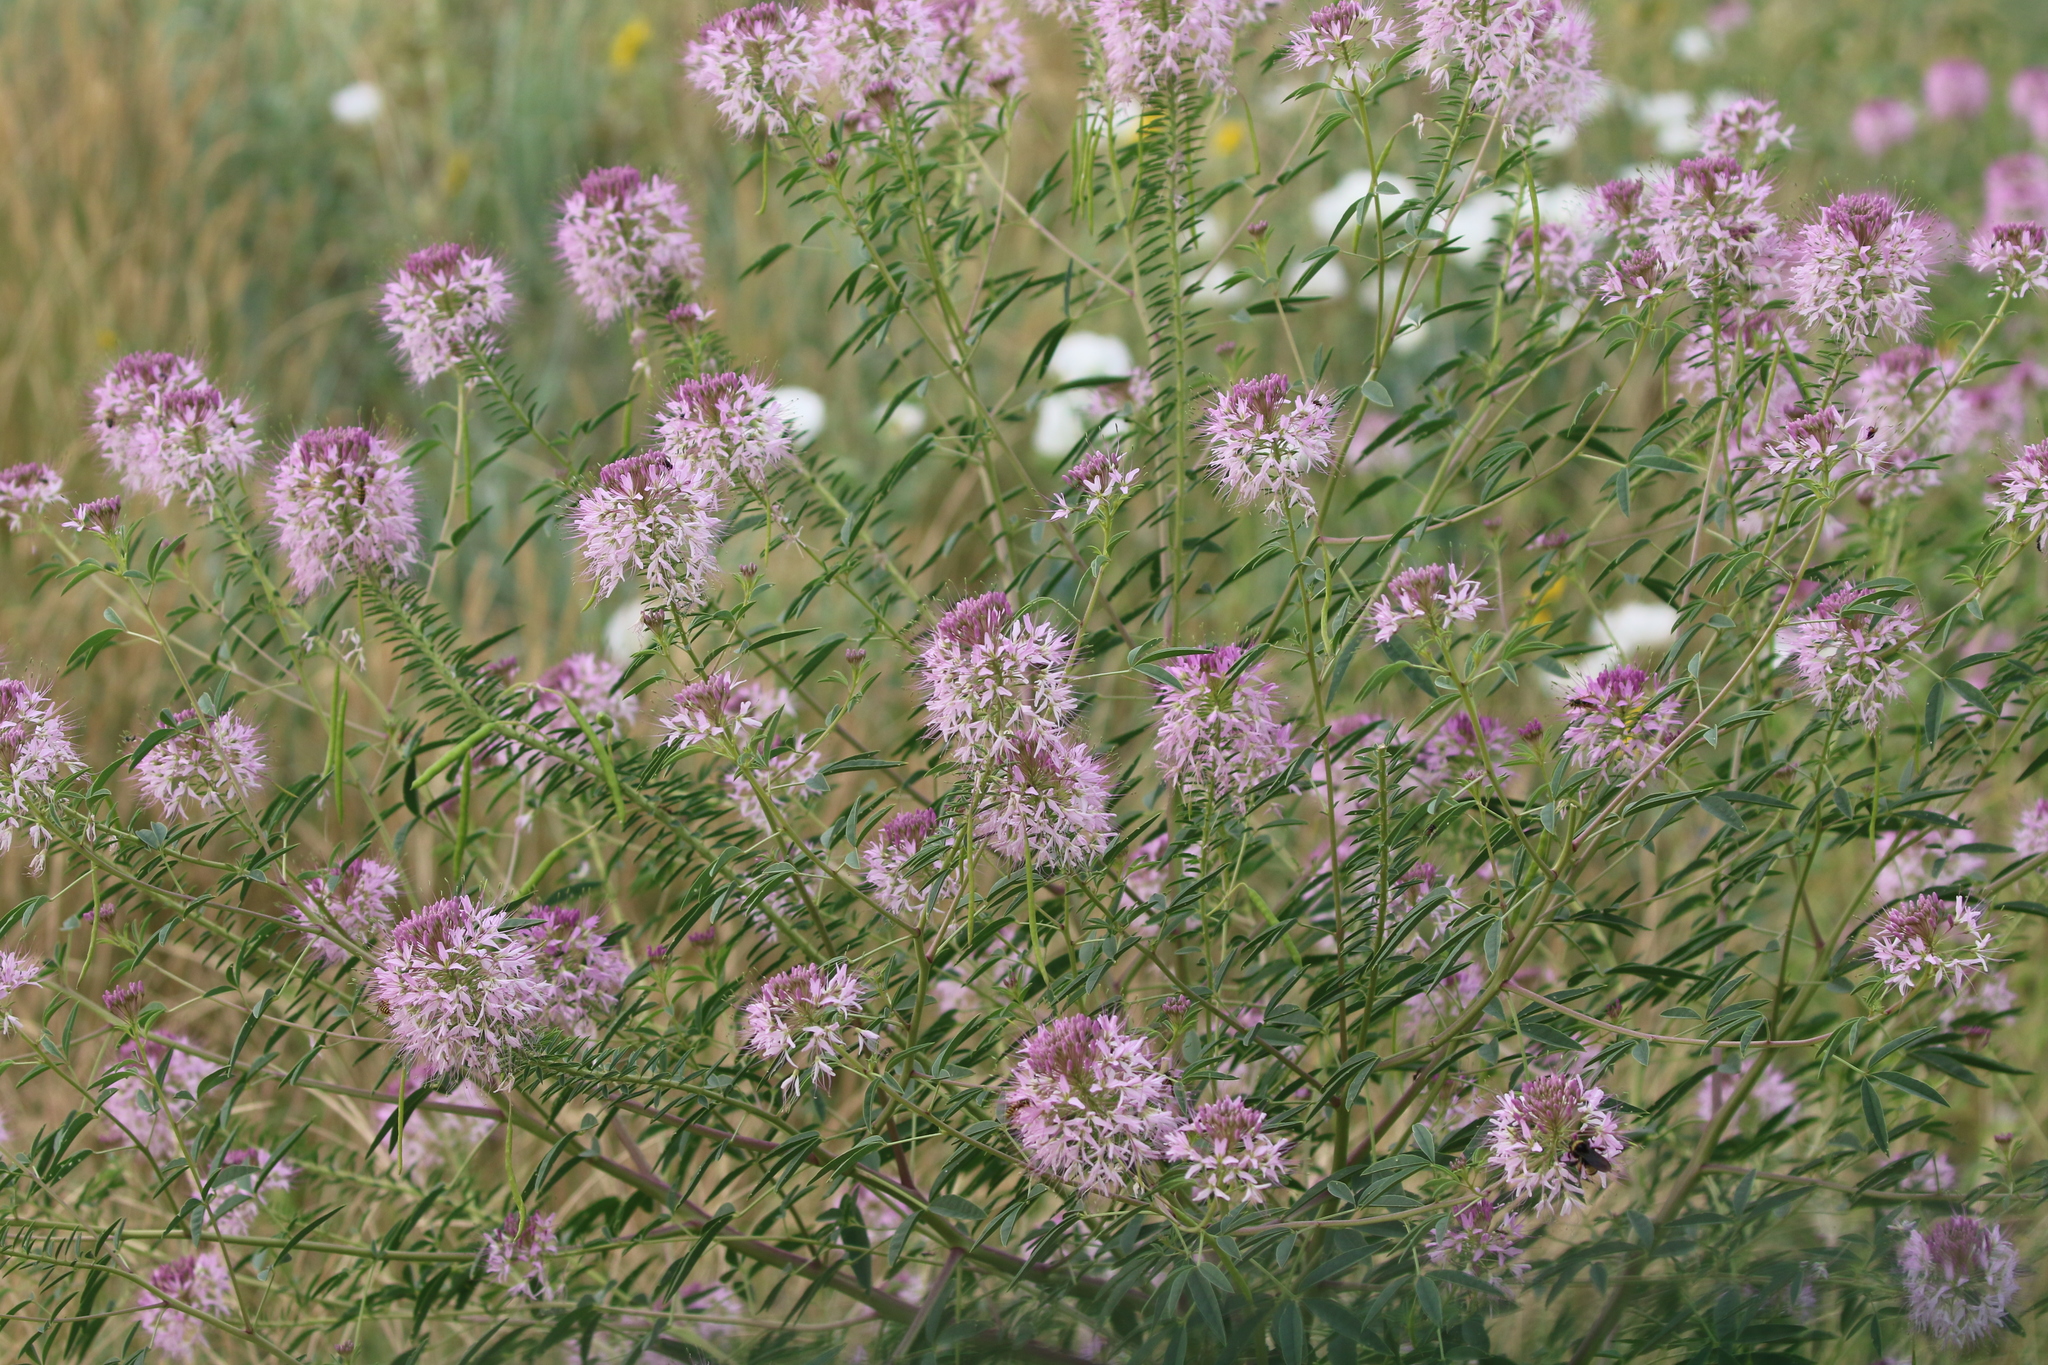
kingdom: Plantae
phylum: Tracheophyta
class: Magnoliopsida
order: Brassicales
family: Cleomaceae
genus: Cleomella
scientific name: Cleomella serrulata
